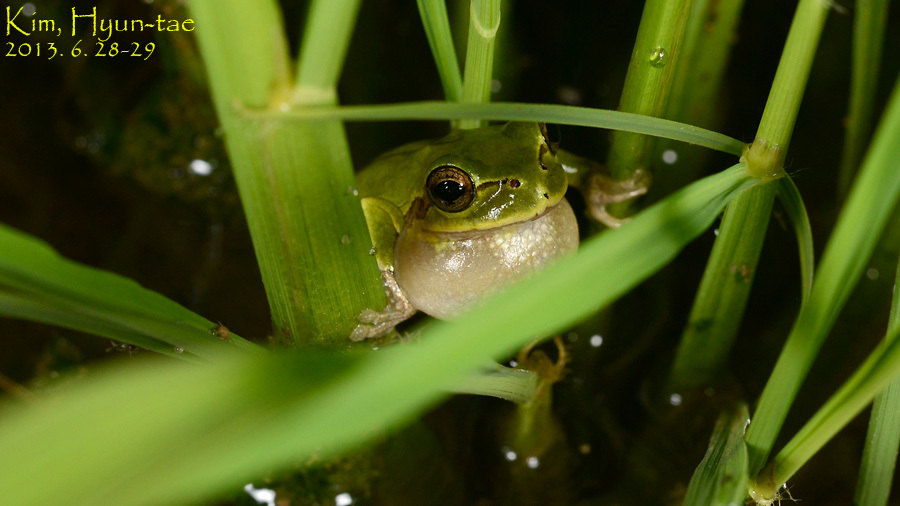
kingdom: Animalia
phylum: Chordata
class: Amphibia
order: Anura
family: Hylidae
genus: Dryophytes
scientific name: Dryophytes japonicus
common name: Japanese treefrog
